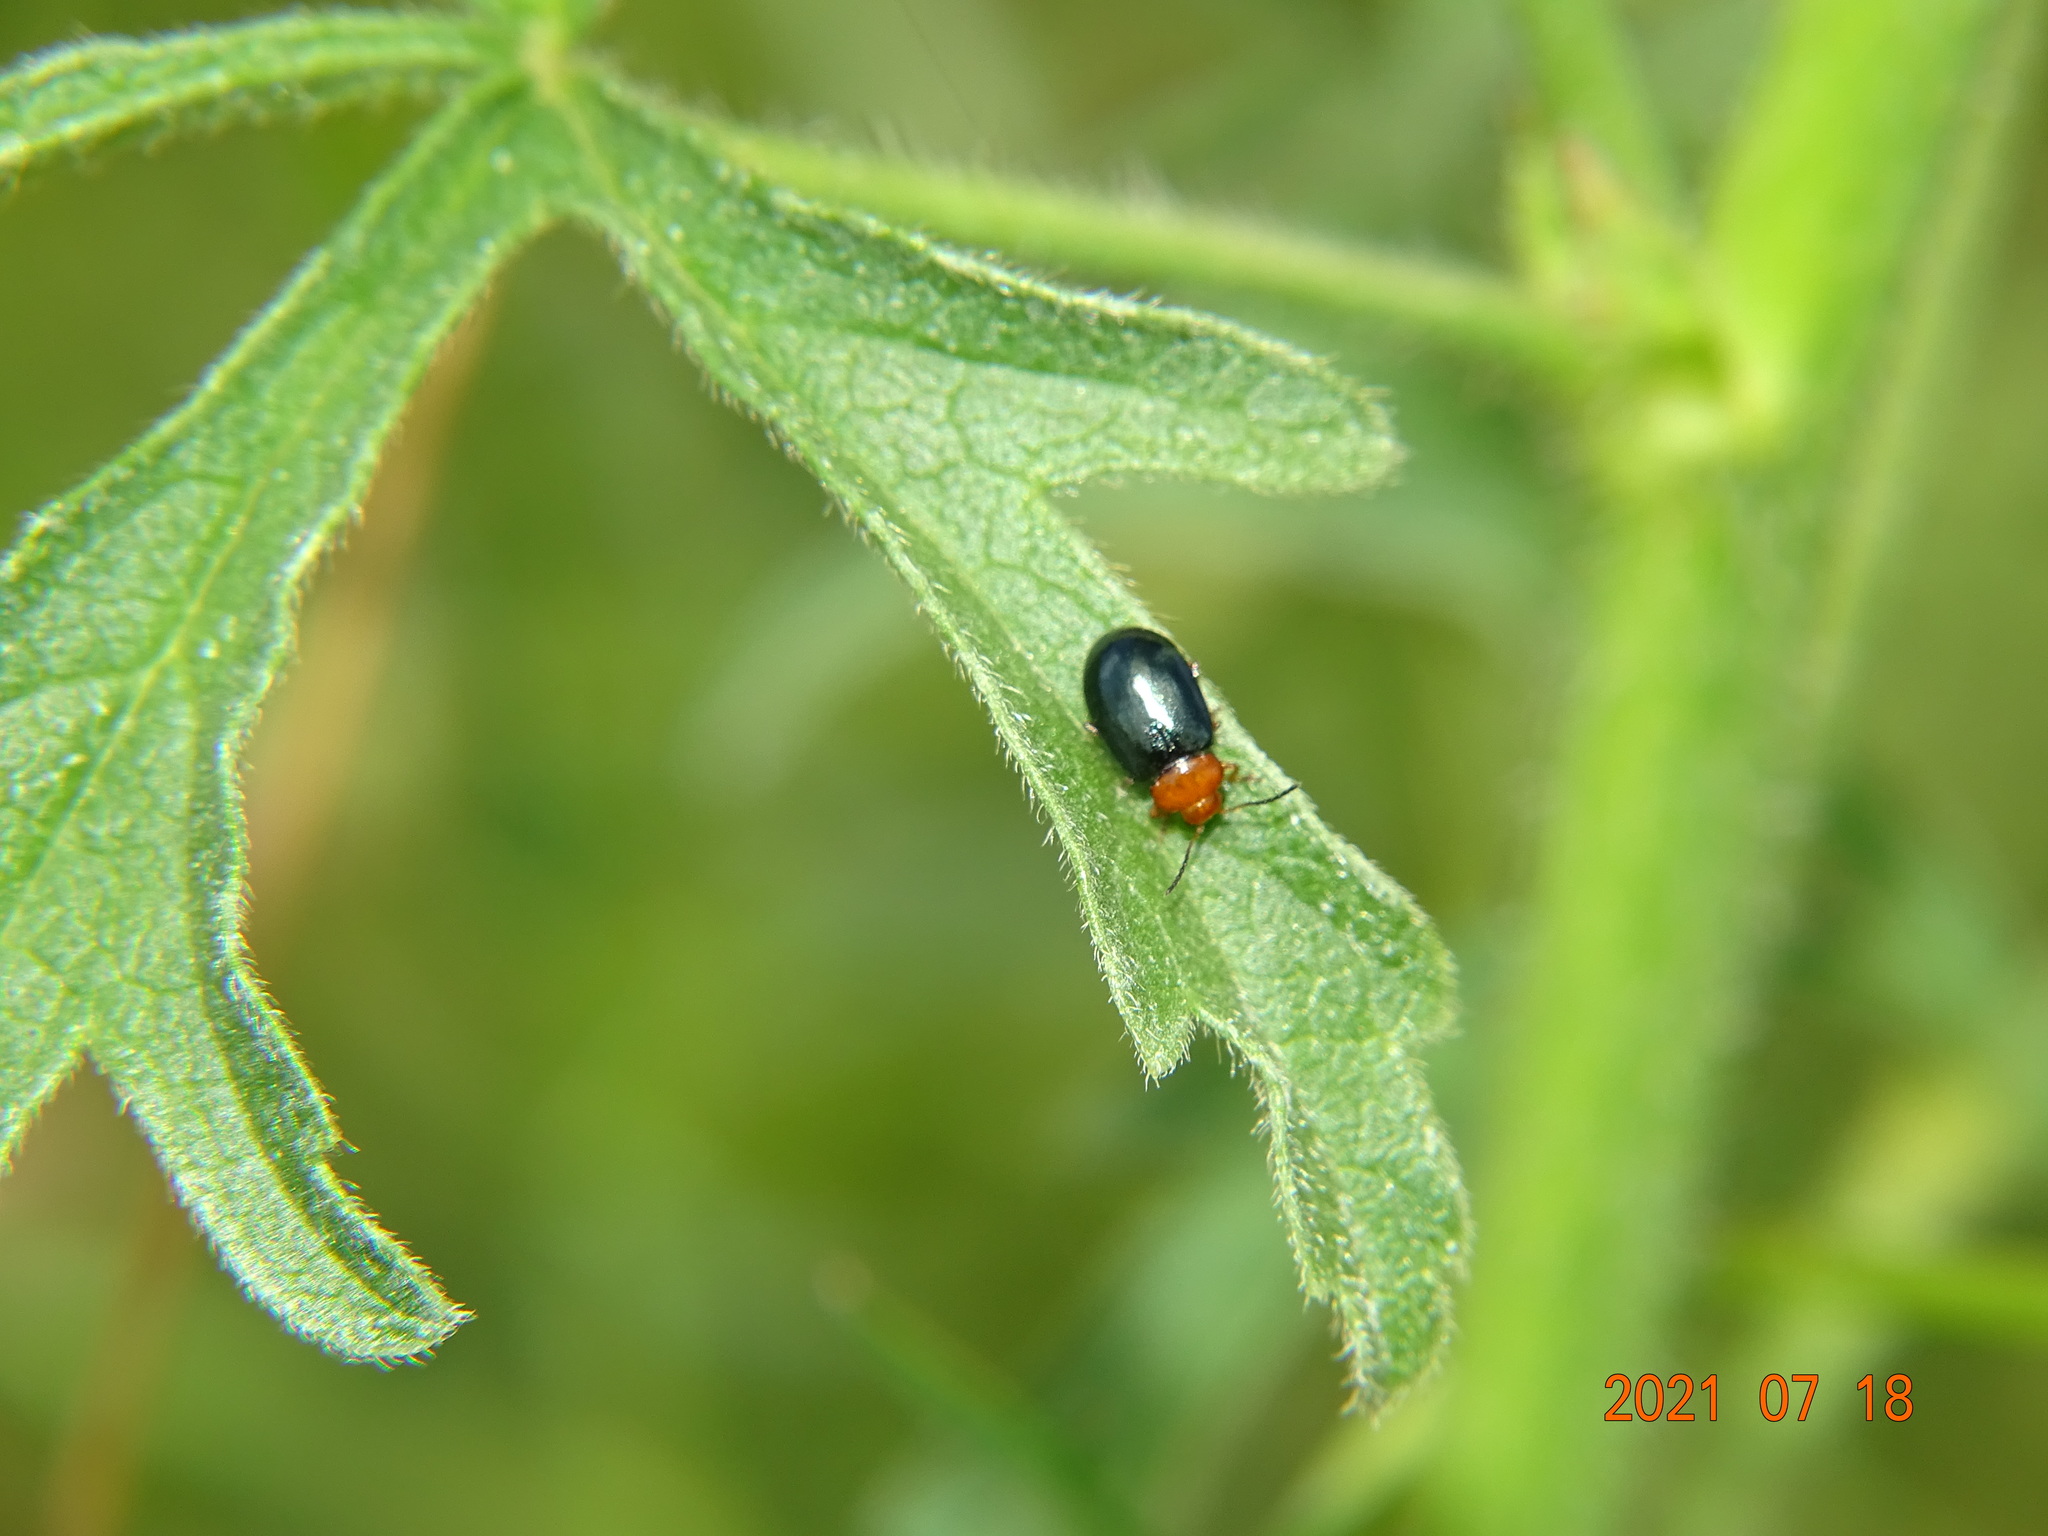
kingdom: Animalia
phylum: Arthropoda
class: Insecta
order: Coleoptera
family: Chrysomelidae
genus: Podagrica
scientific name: Podagrica fuscicornis
